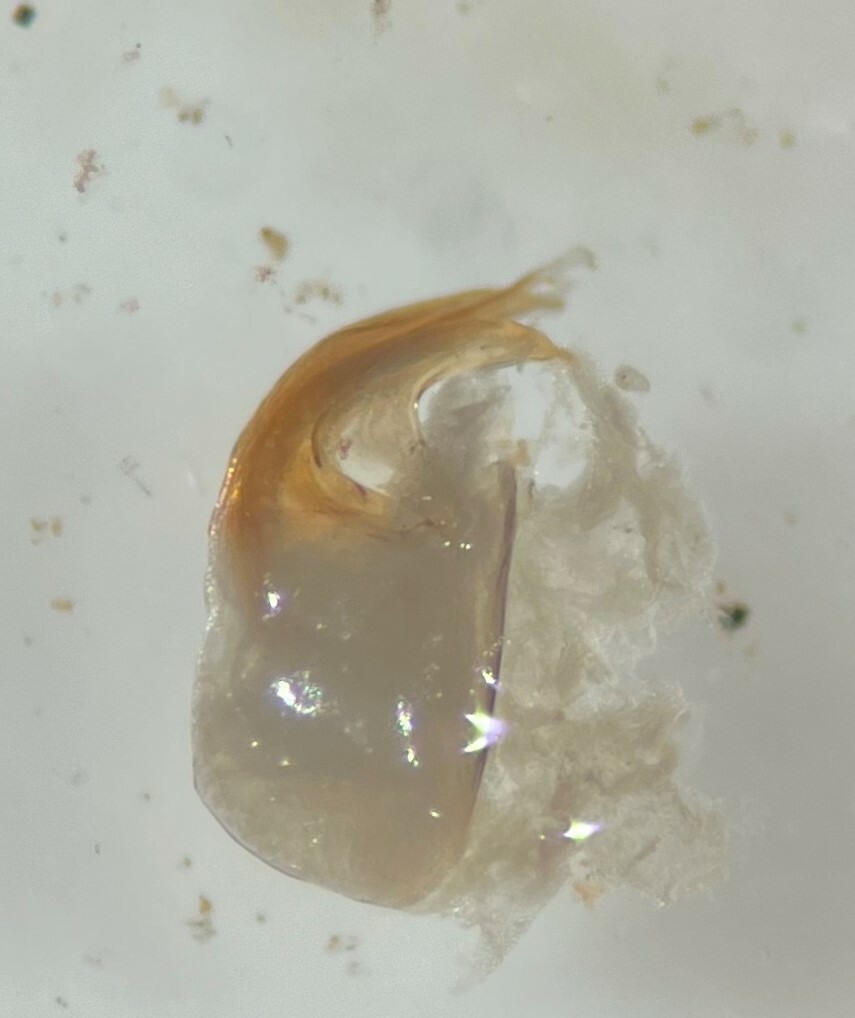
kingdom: Animalia
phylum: Arthropoda
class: Insecta
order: Hemiptera
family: Corixidae
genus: Sigara
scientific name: Sigara alternata
